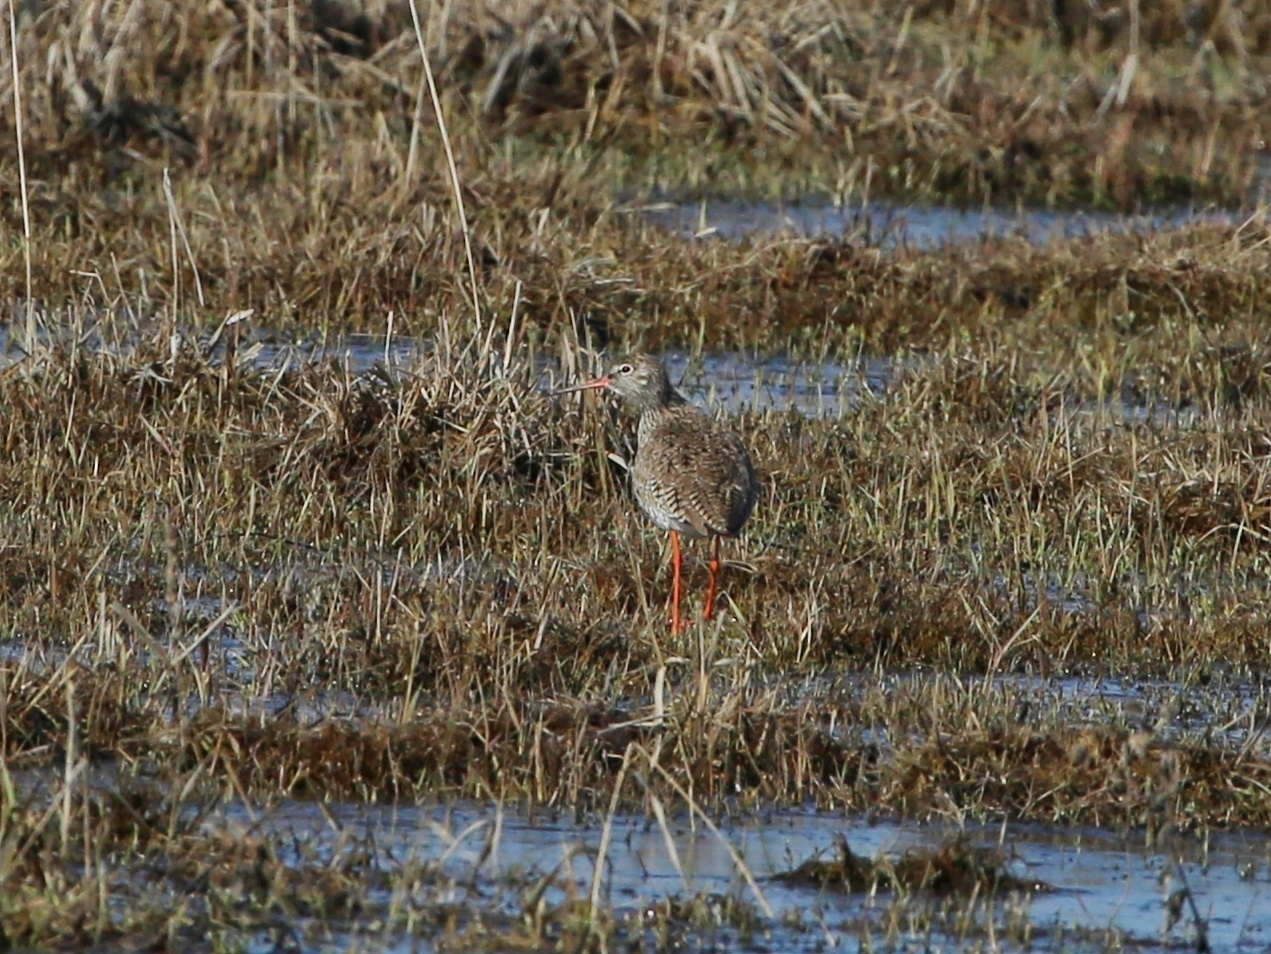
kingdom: Animalia
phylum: Chordata
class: Aves
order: Charadriiformes
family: Scolopacidae
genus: Tringa
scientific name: Tringa totanus
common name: Common redshank
